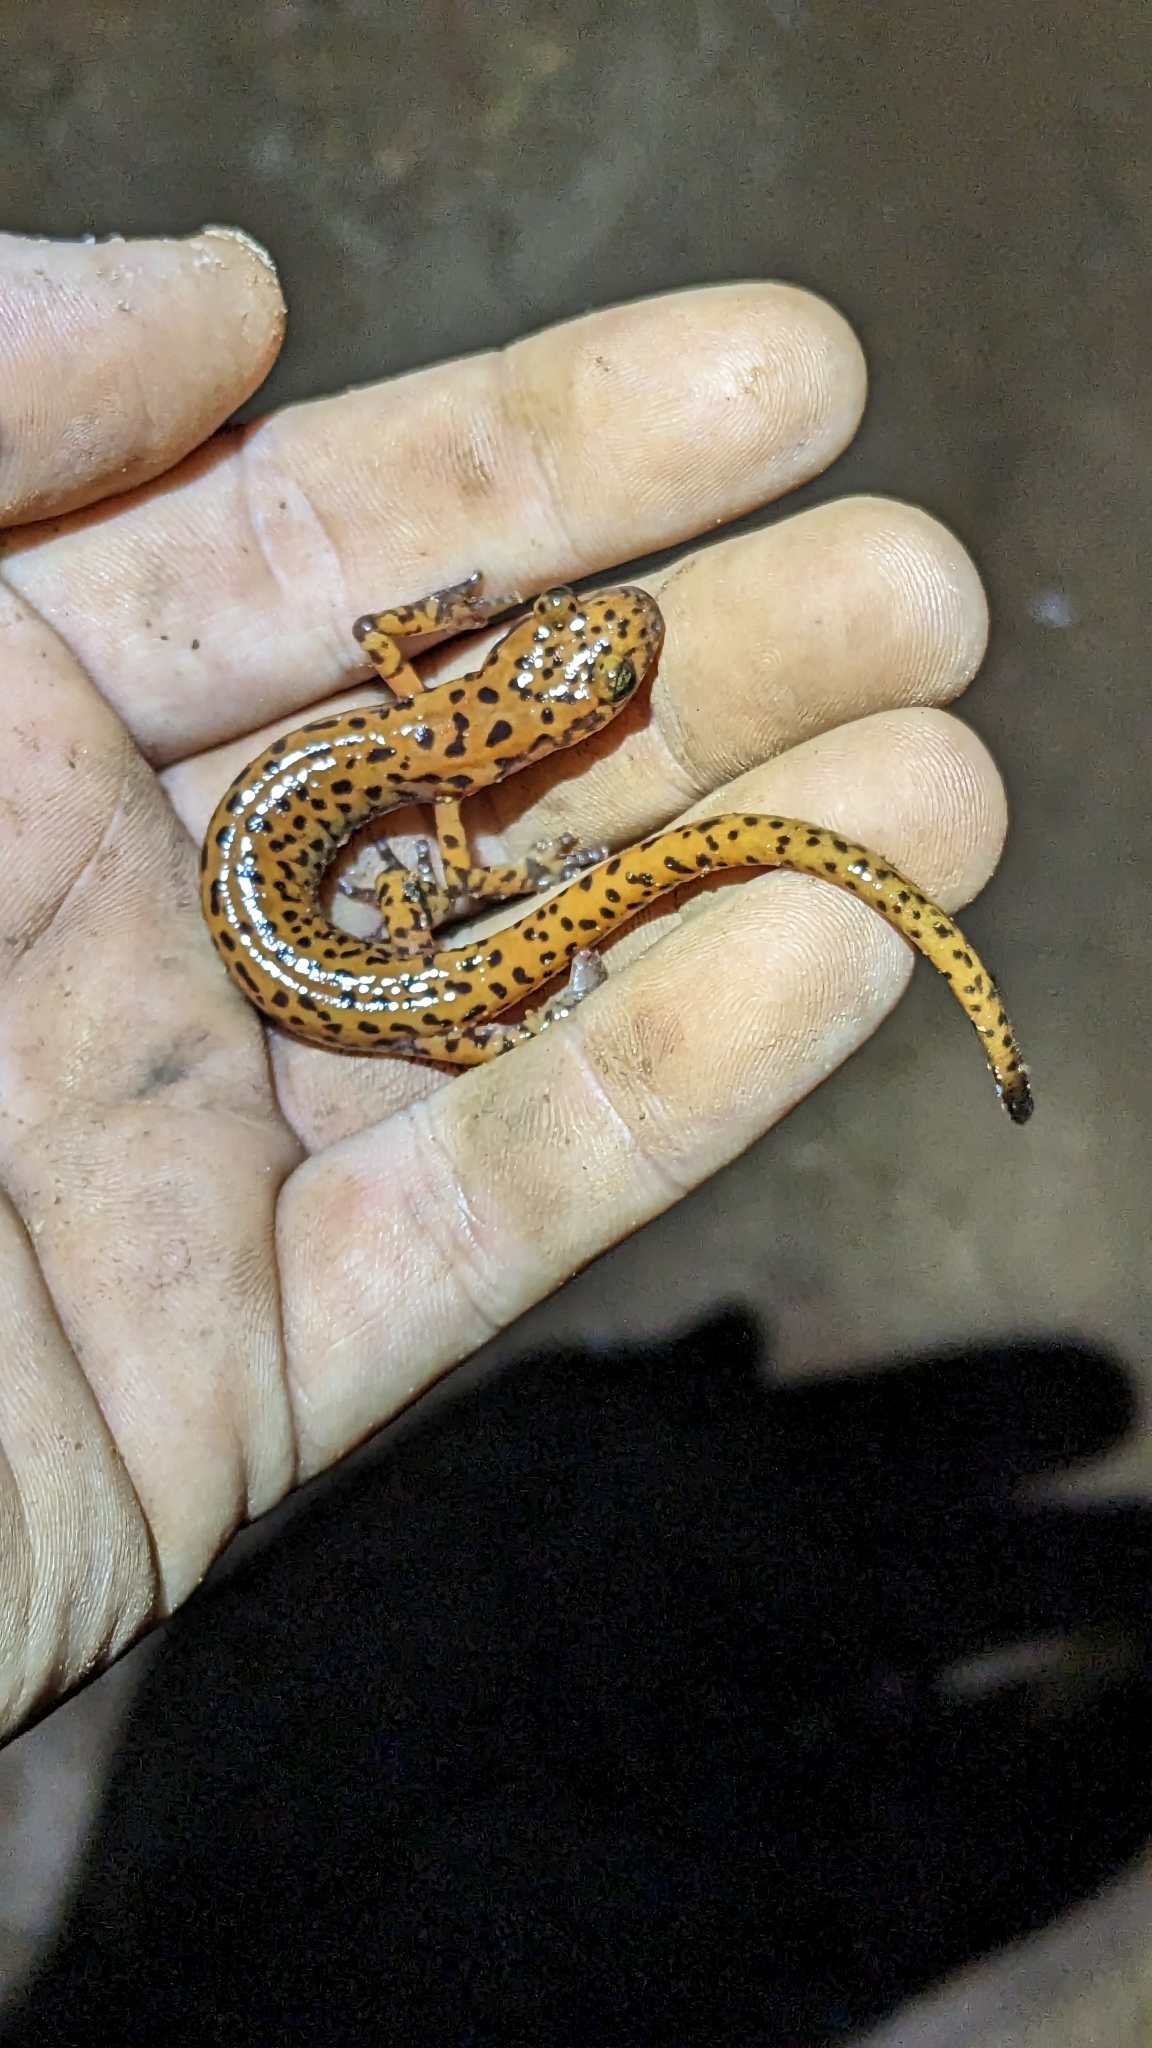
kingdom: Animalia
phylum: Chordata
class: Amphibia
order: Caudata
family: Plethodontidae
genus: Eurycea
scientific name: Eurycea lucifuga
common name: Cave salamander
